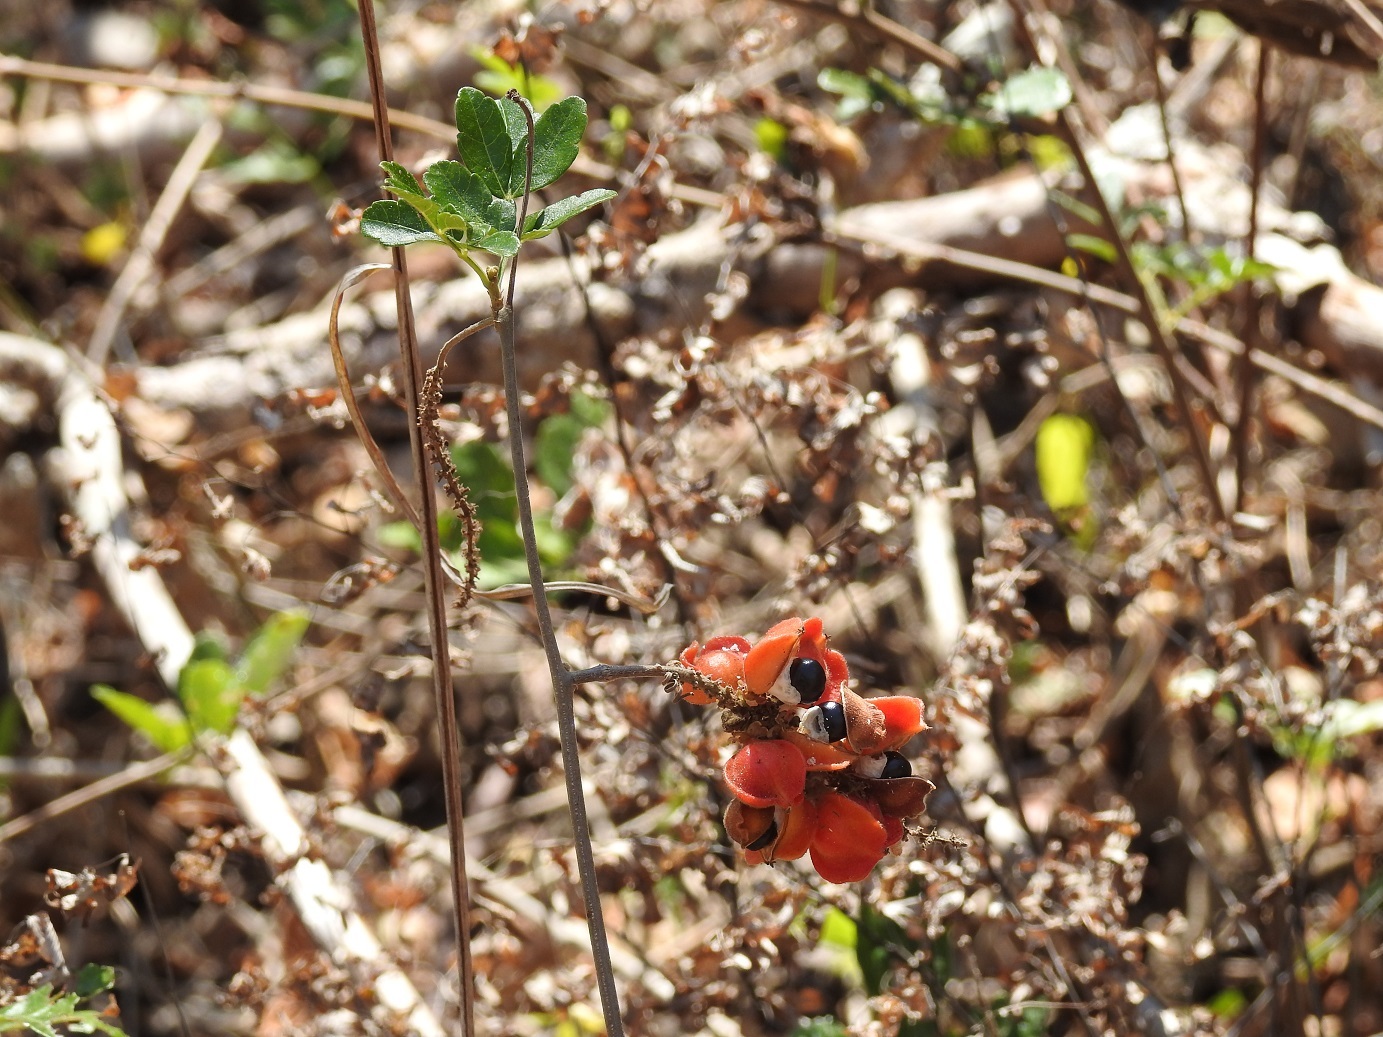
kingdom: Plantae
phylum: Tracheophyta
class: Magnoliopsida
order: Sapindales
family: Sapindaceae
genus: Paullinia
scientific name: Paullinia fuscescens
